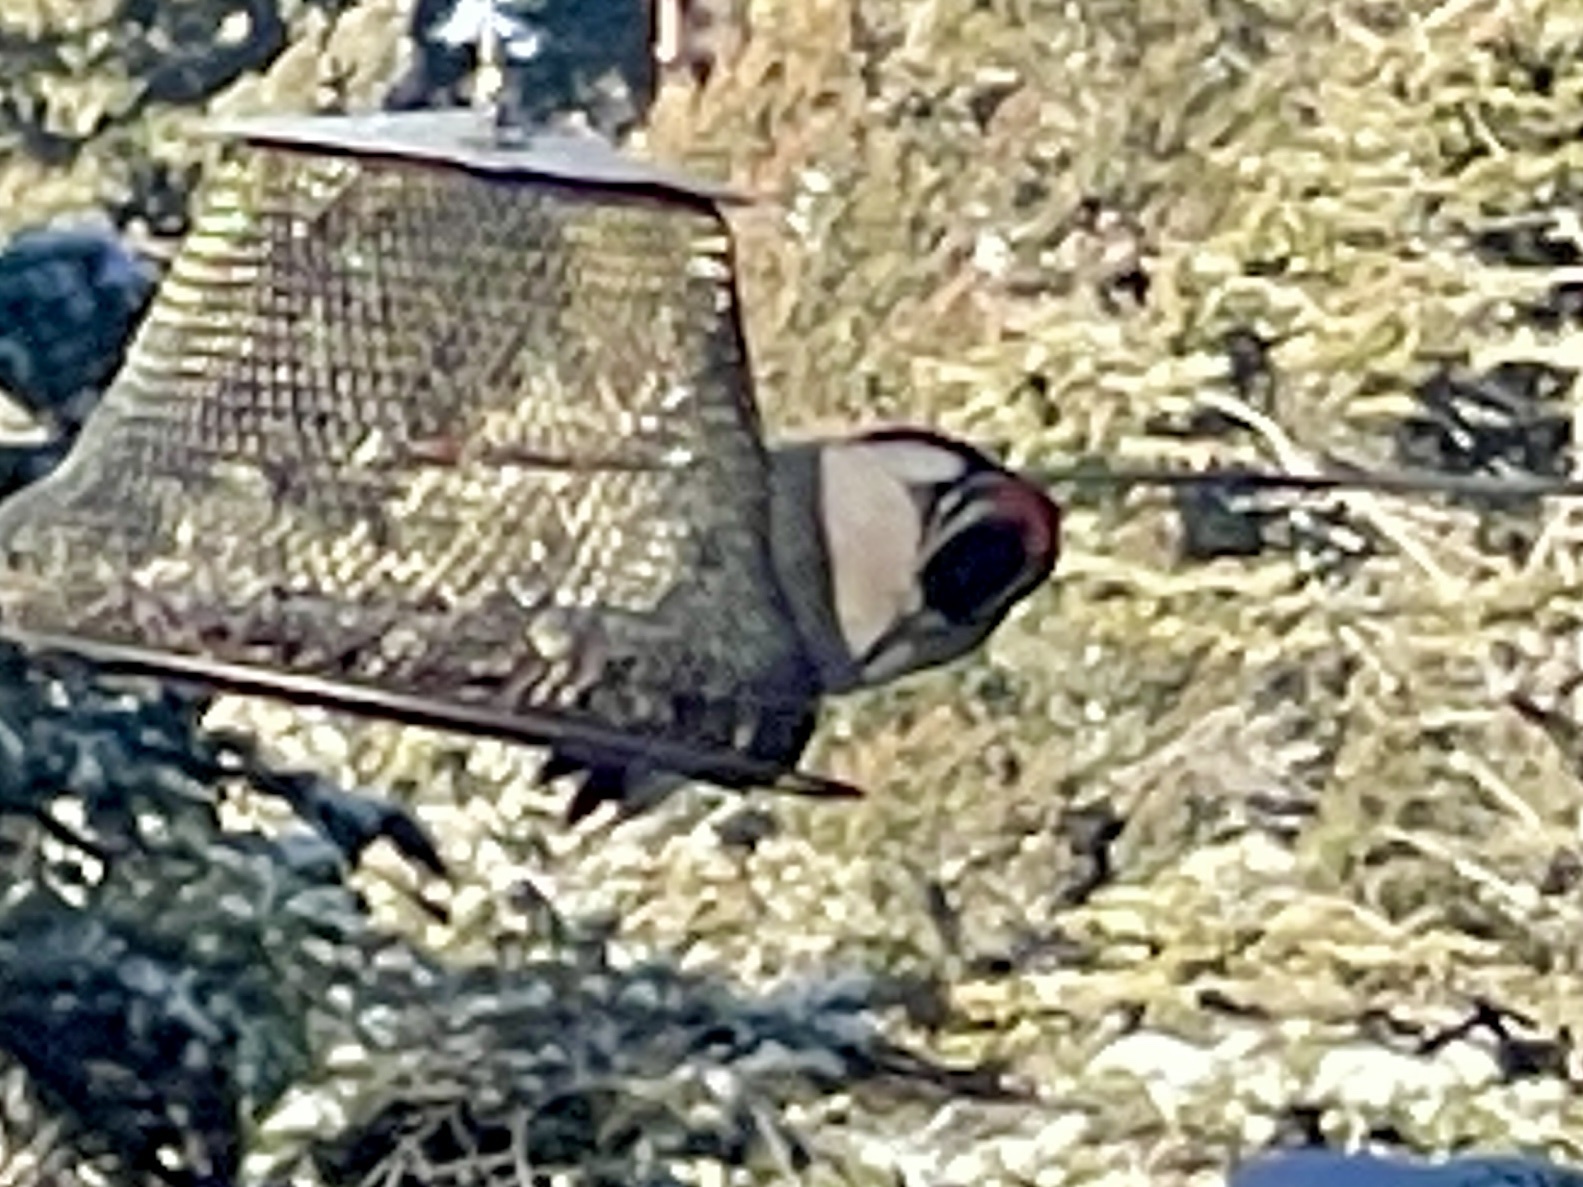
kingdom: Animalia
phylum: Chordata
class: Aves
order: Piciformes
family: Picidae
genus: Leuconotopicus
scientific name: Leuconotopicus villosus
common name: Hairy woodpecker
